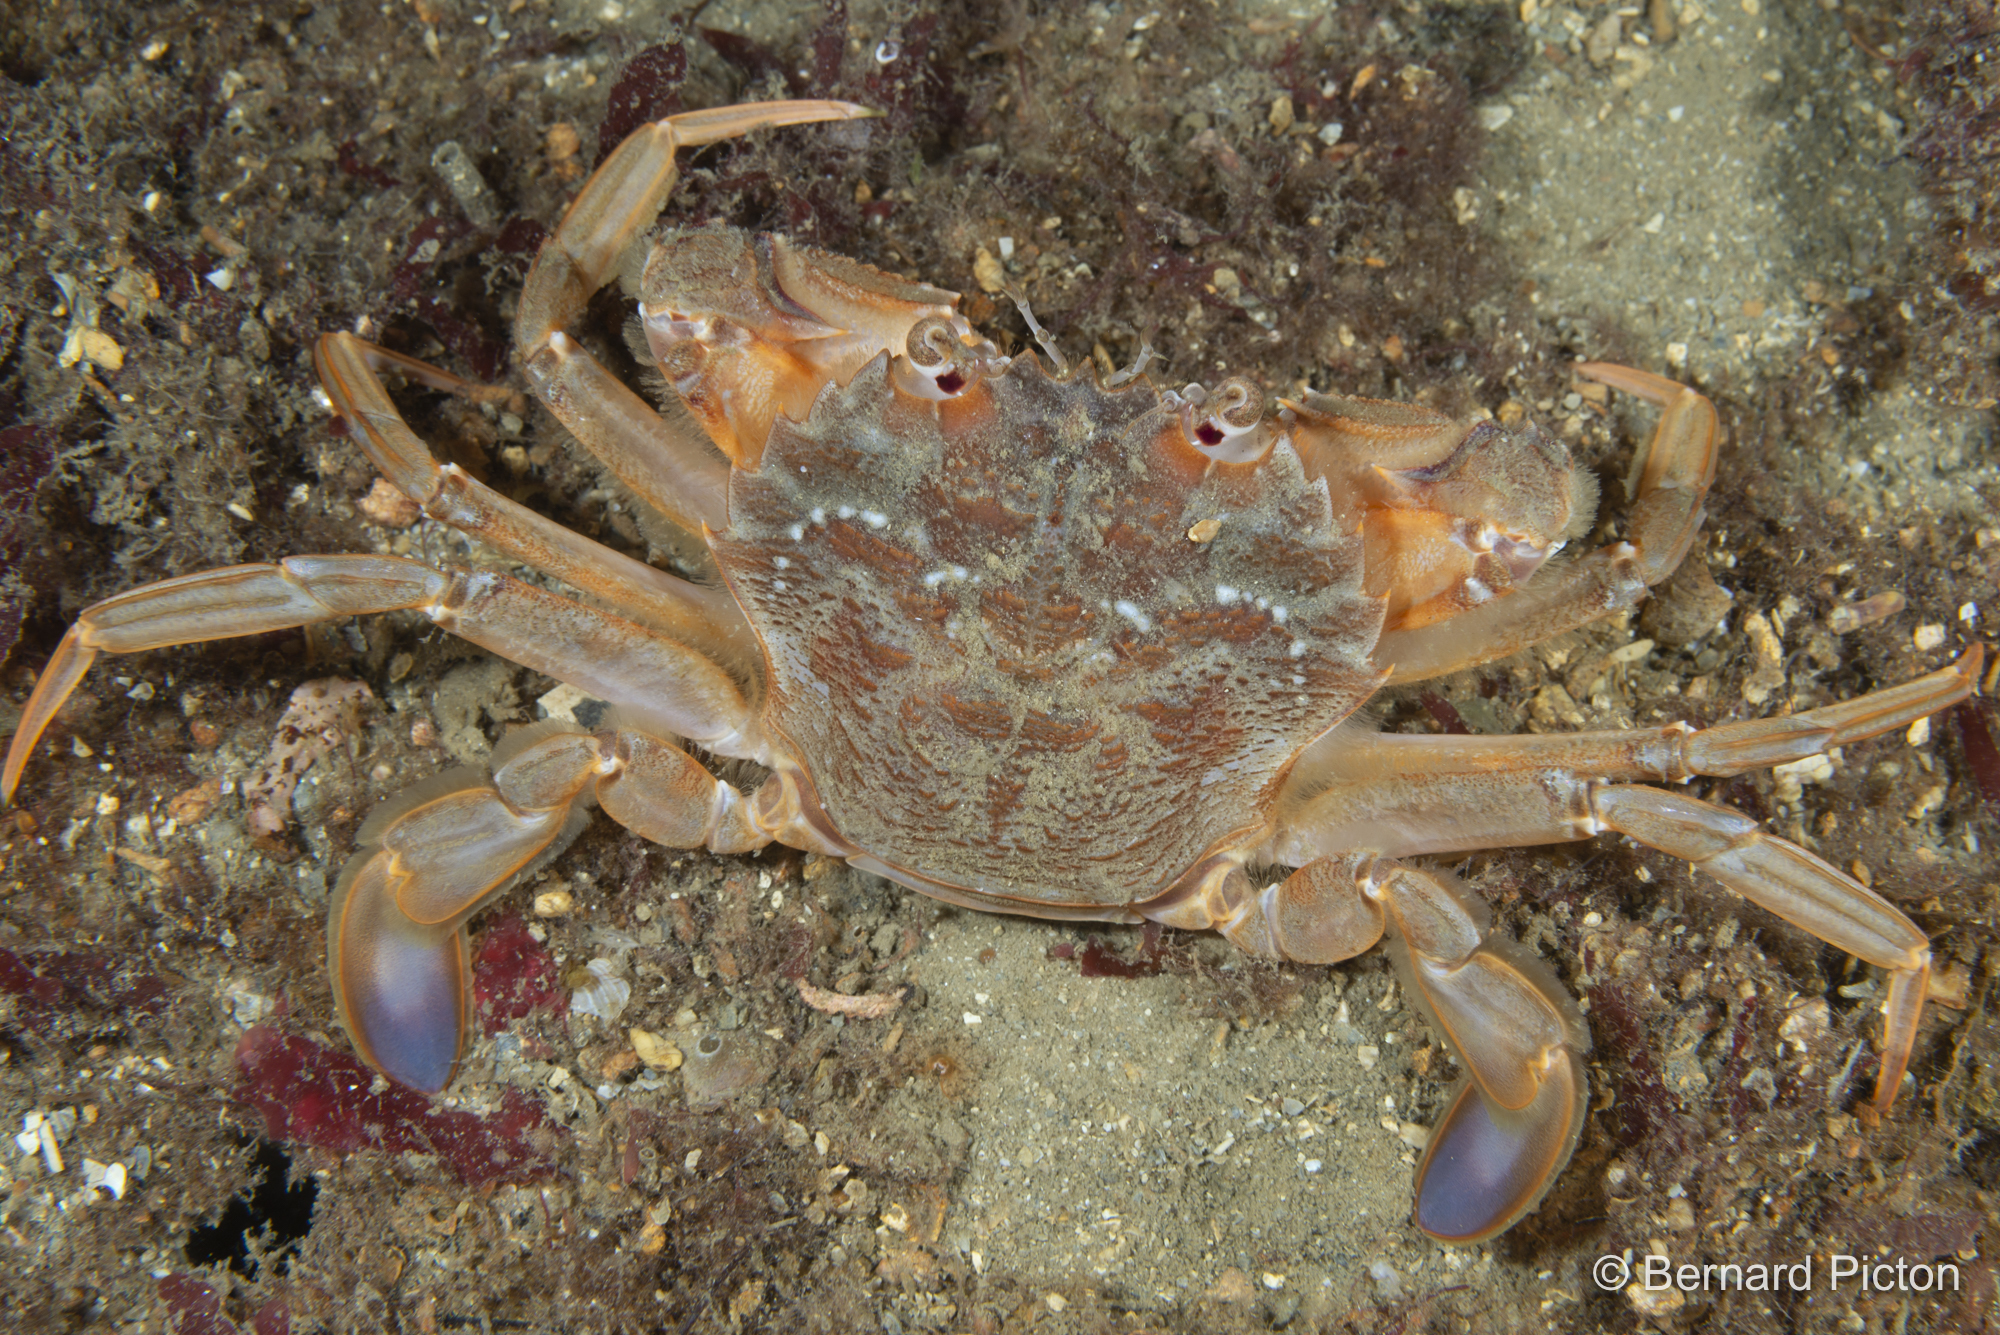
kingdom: Animalia
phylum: Arthropoda
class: Malacostraca
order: Decapoda
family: Polybiidae
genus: Liocarcinus
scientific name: Liocarcinus depurator
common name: Cleanser crab
